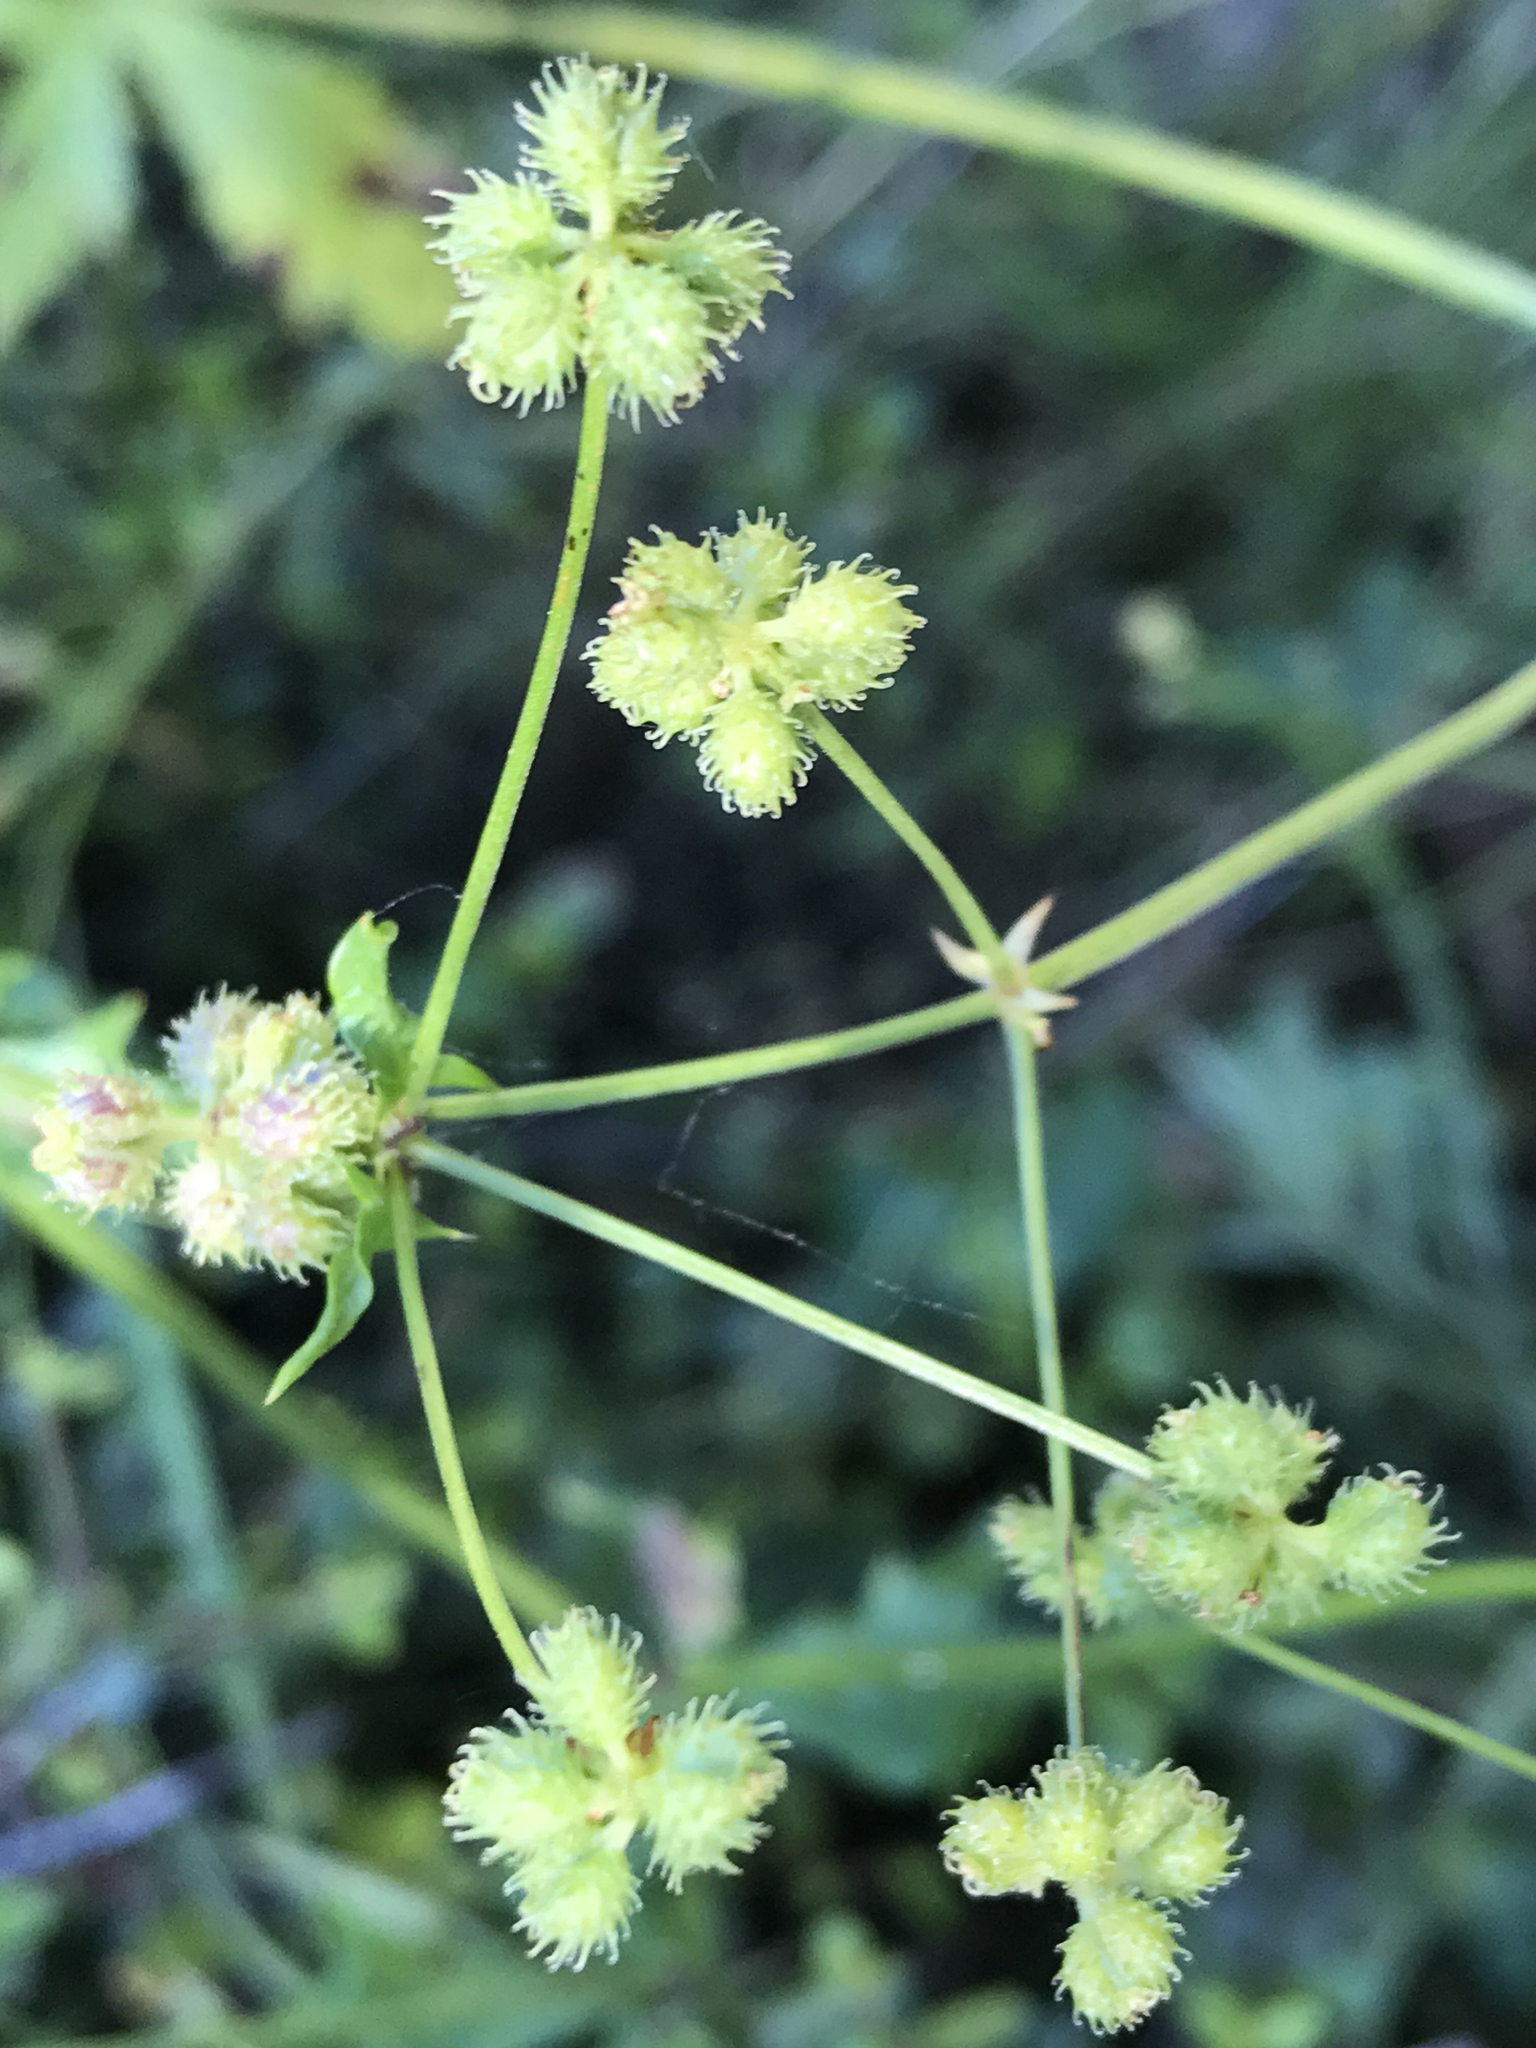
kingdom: Plantae
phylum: Tracheophyta
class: Magnoliopsida
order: Apiales
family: Apiaceae
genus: Sanicula
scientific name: Sanicula crassicaulis
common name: Western snakeroot
